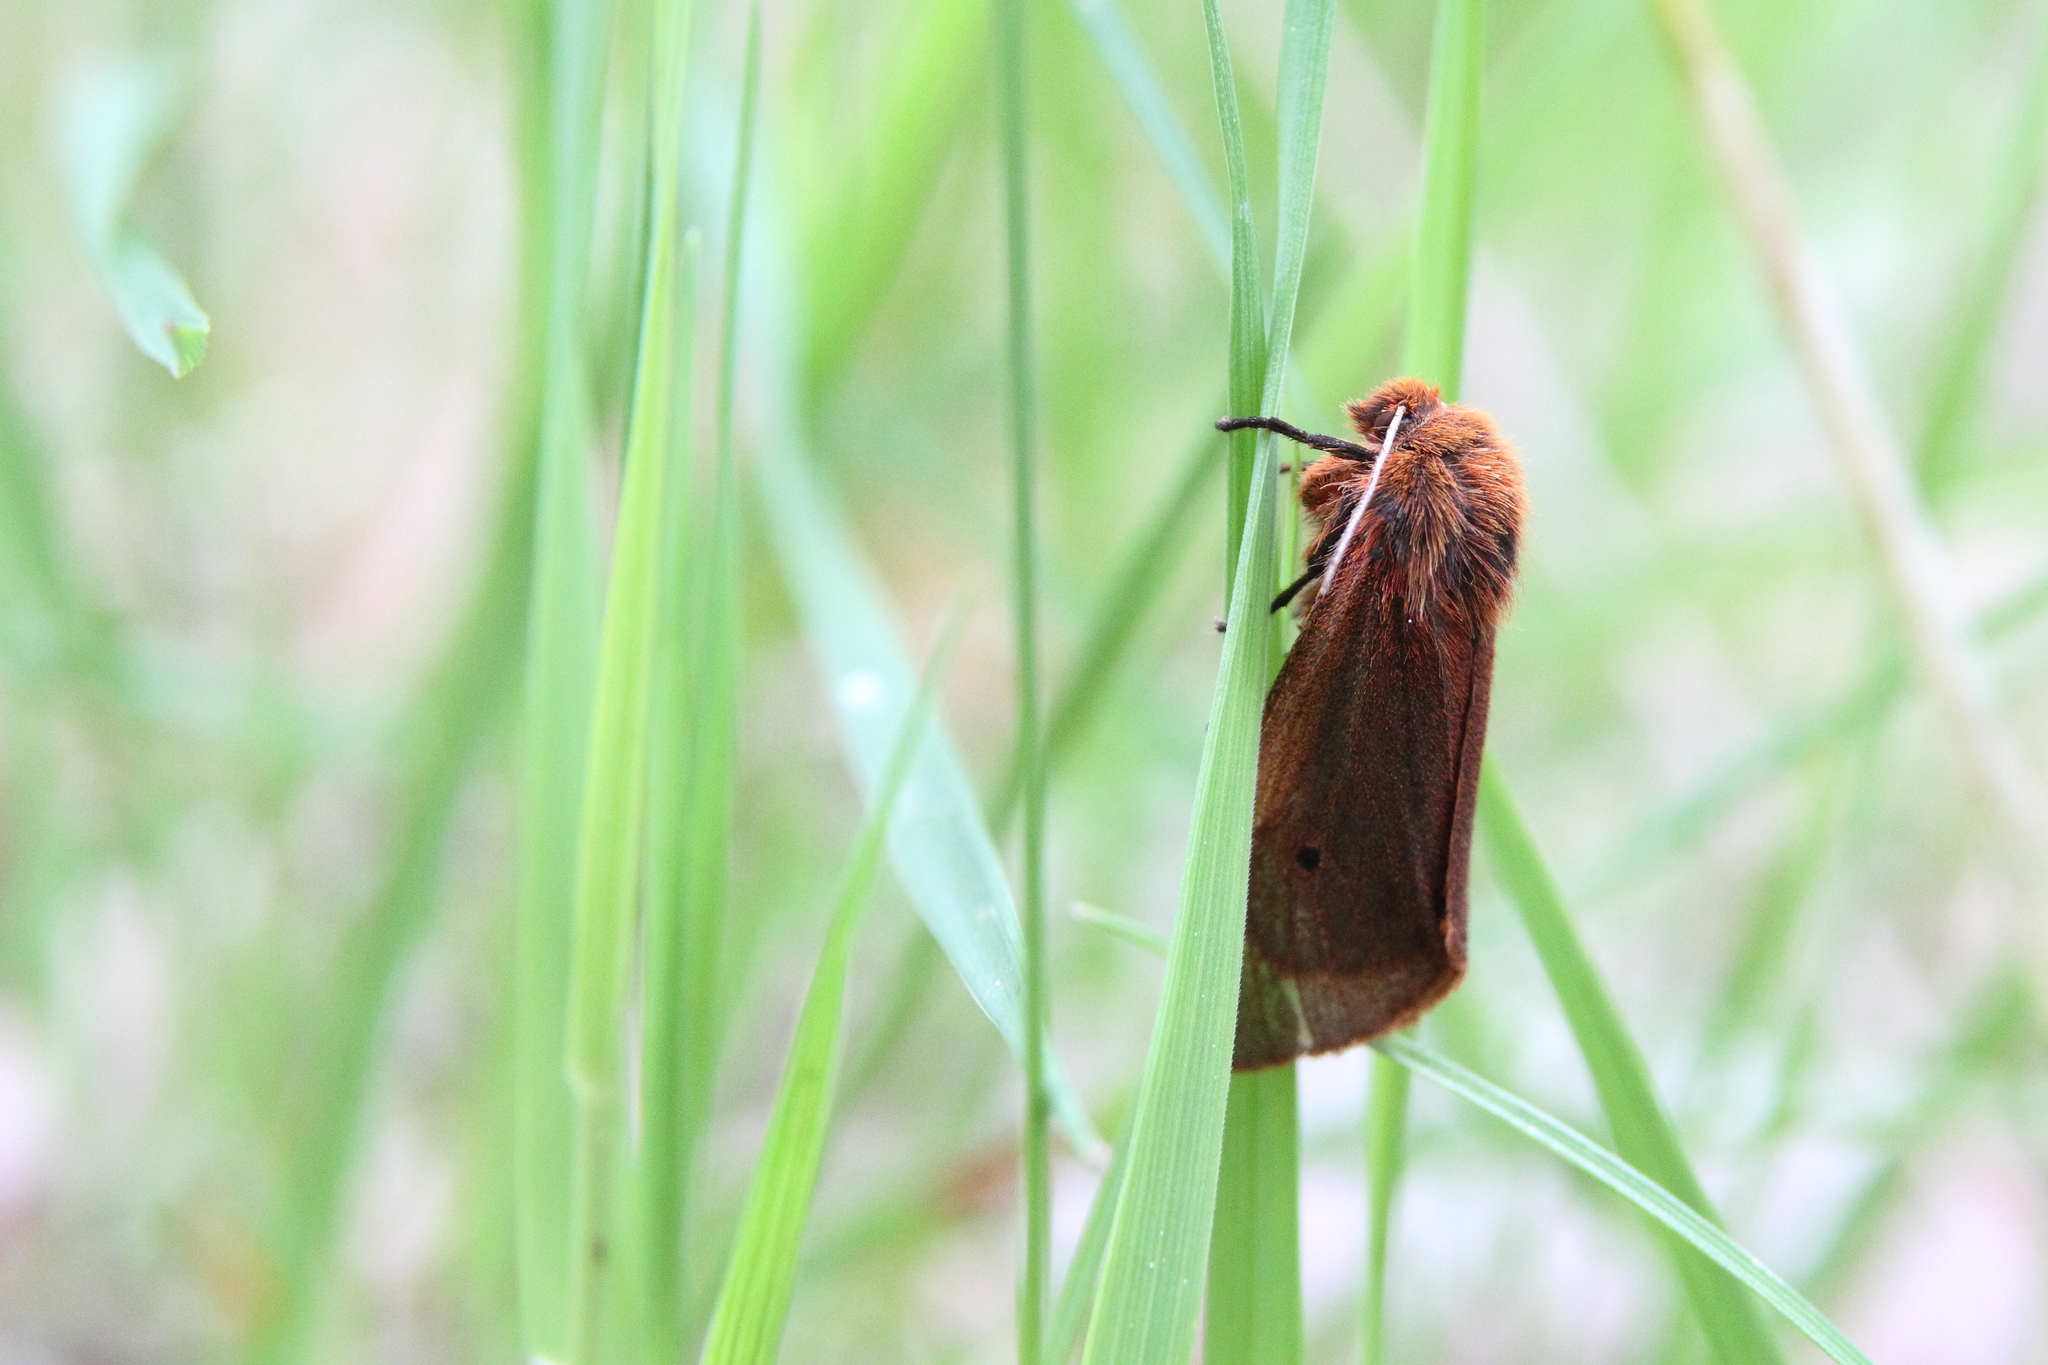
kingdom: Animalia
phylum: Arthropoda
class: Insecta
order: Lepidoptera
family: Erebidae
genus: Phragmatobia
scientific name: Phragmatobia fuliginosa
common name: Ruby tiger
